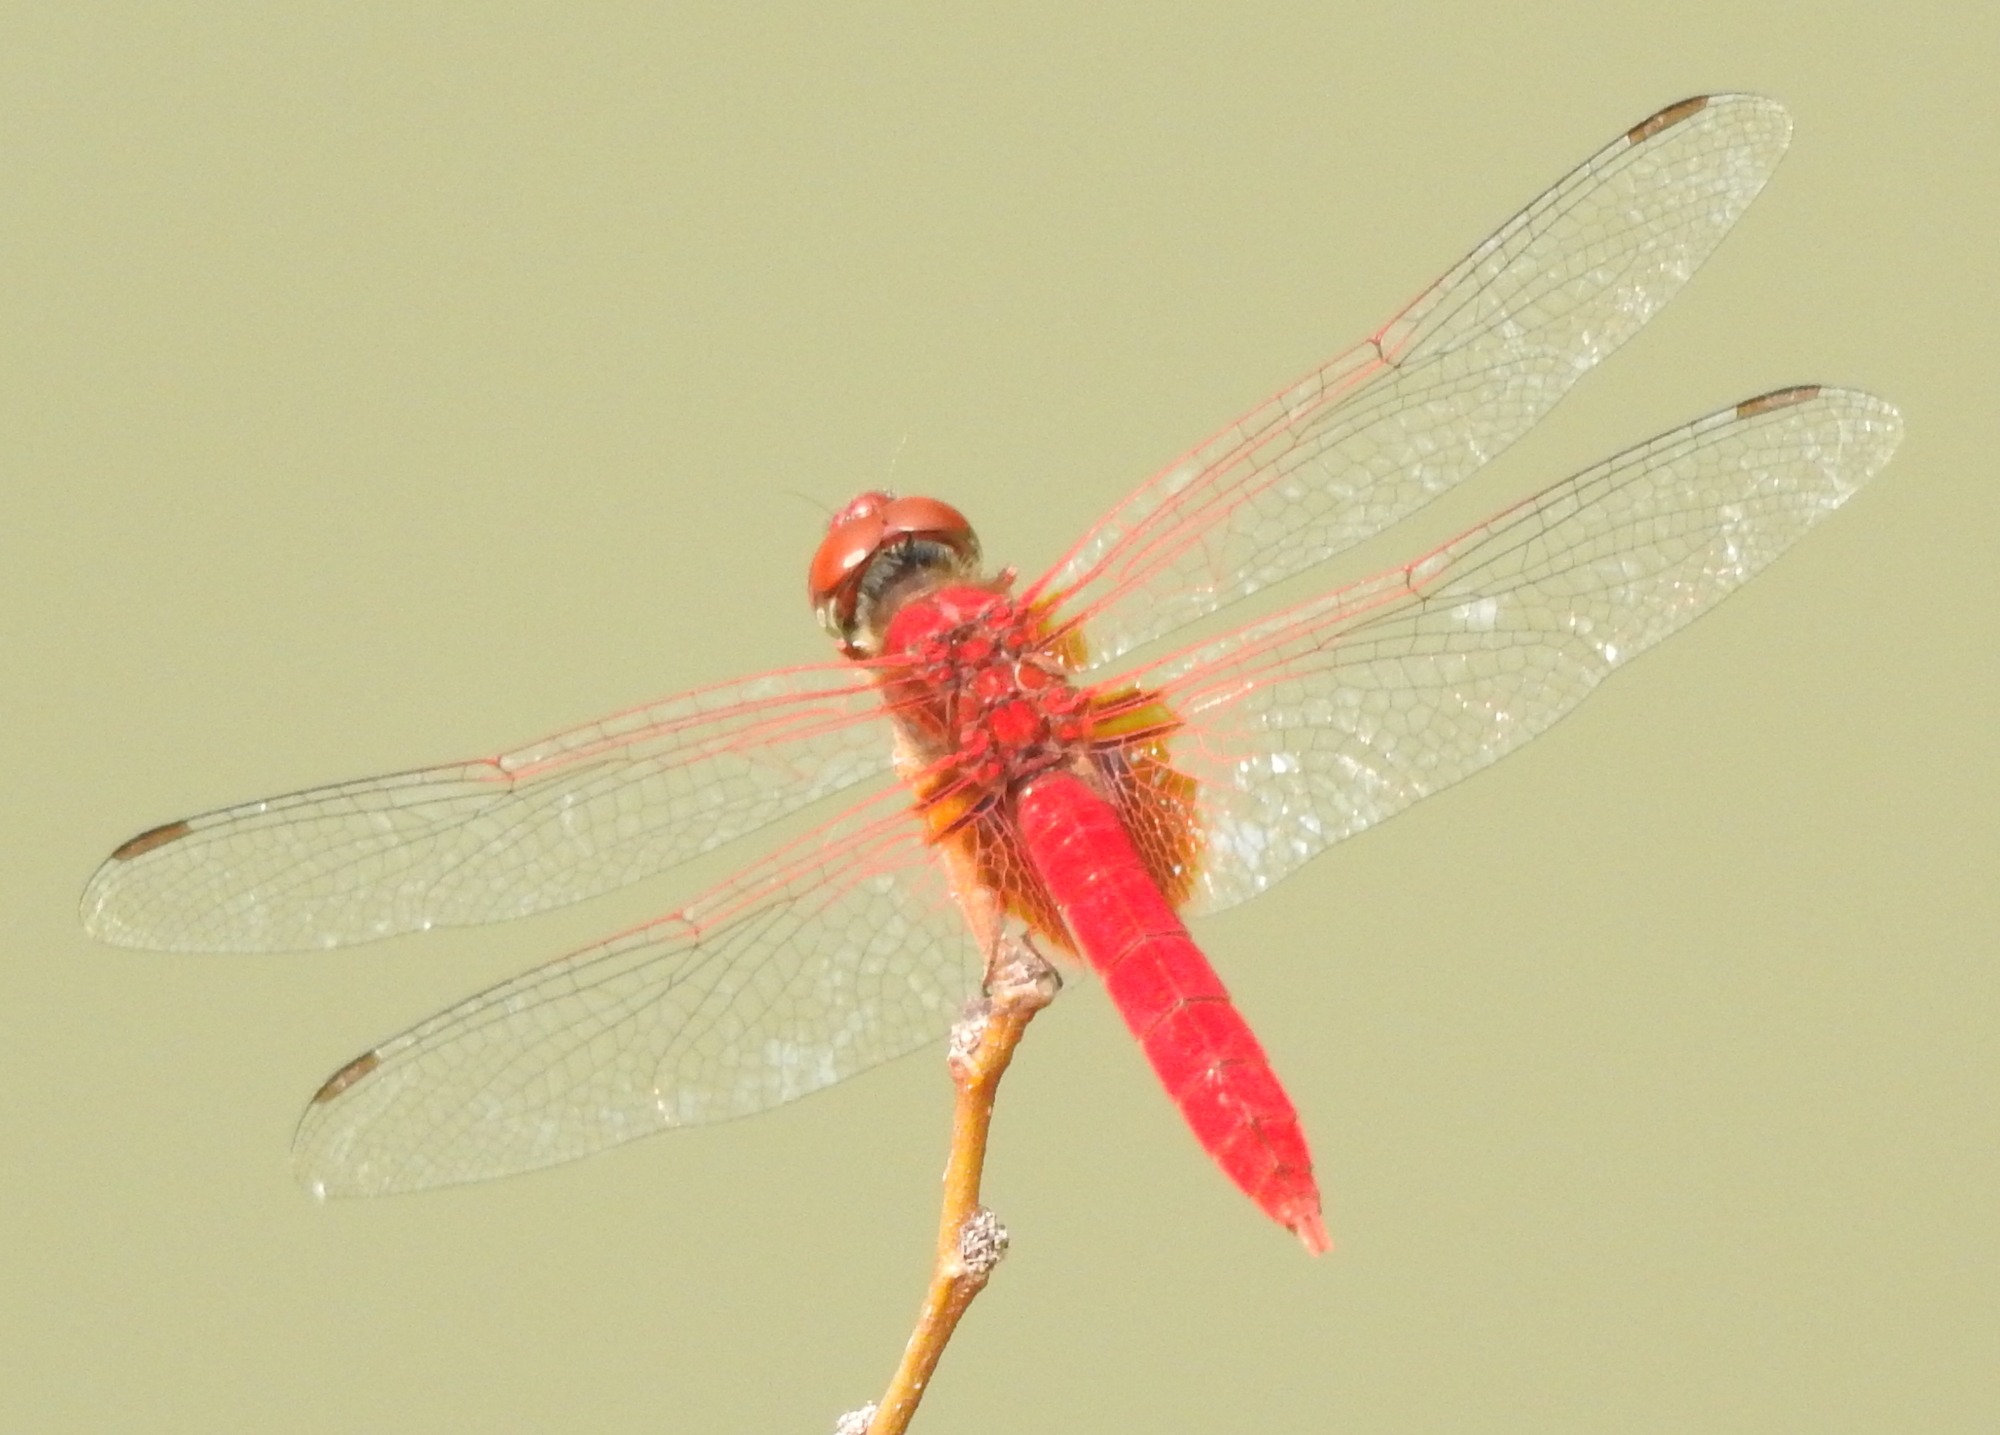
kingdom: Animalia
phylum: Arthropoda
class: Insecta
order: Odonata
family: Libellulidae
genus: Urothemis
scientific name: Urothemis signata
